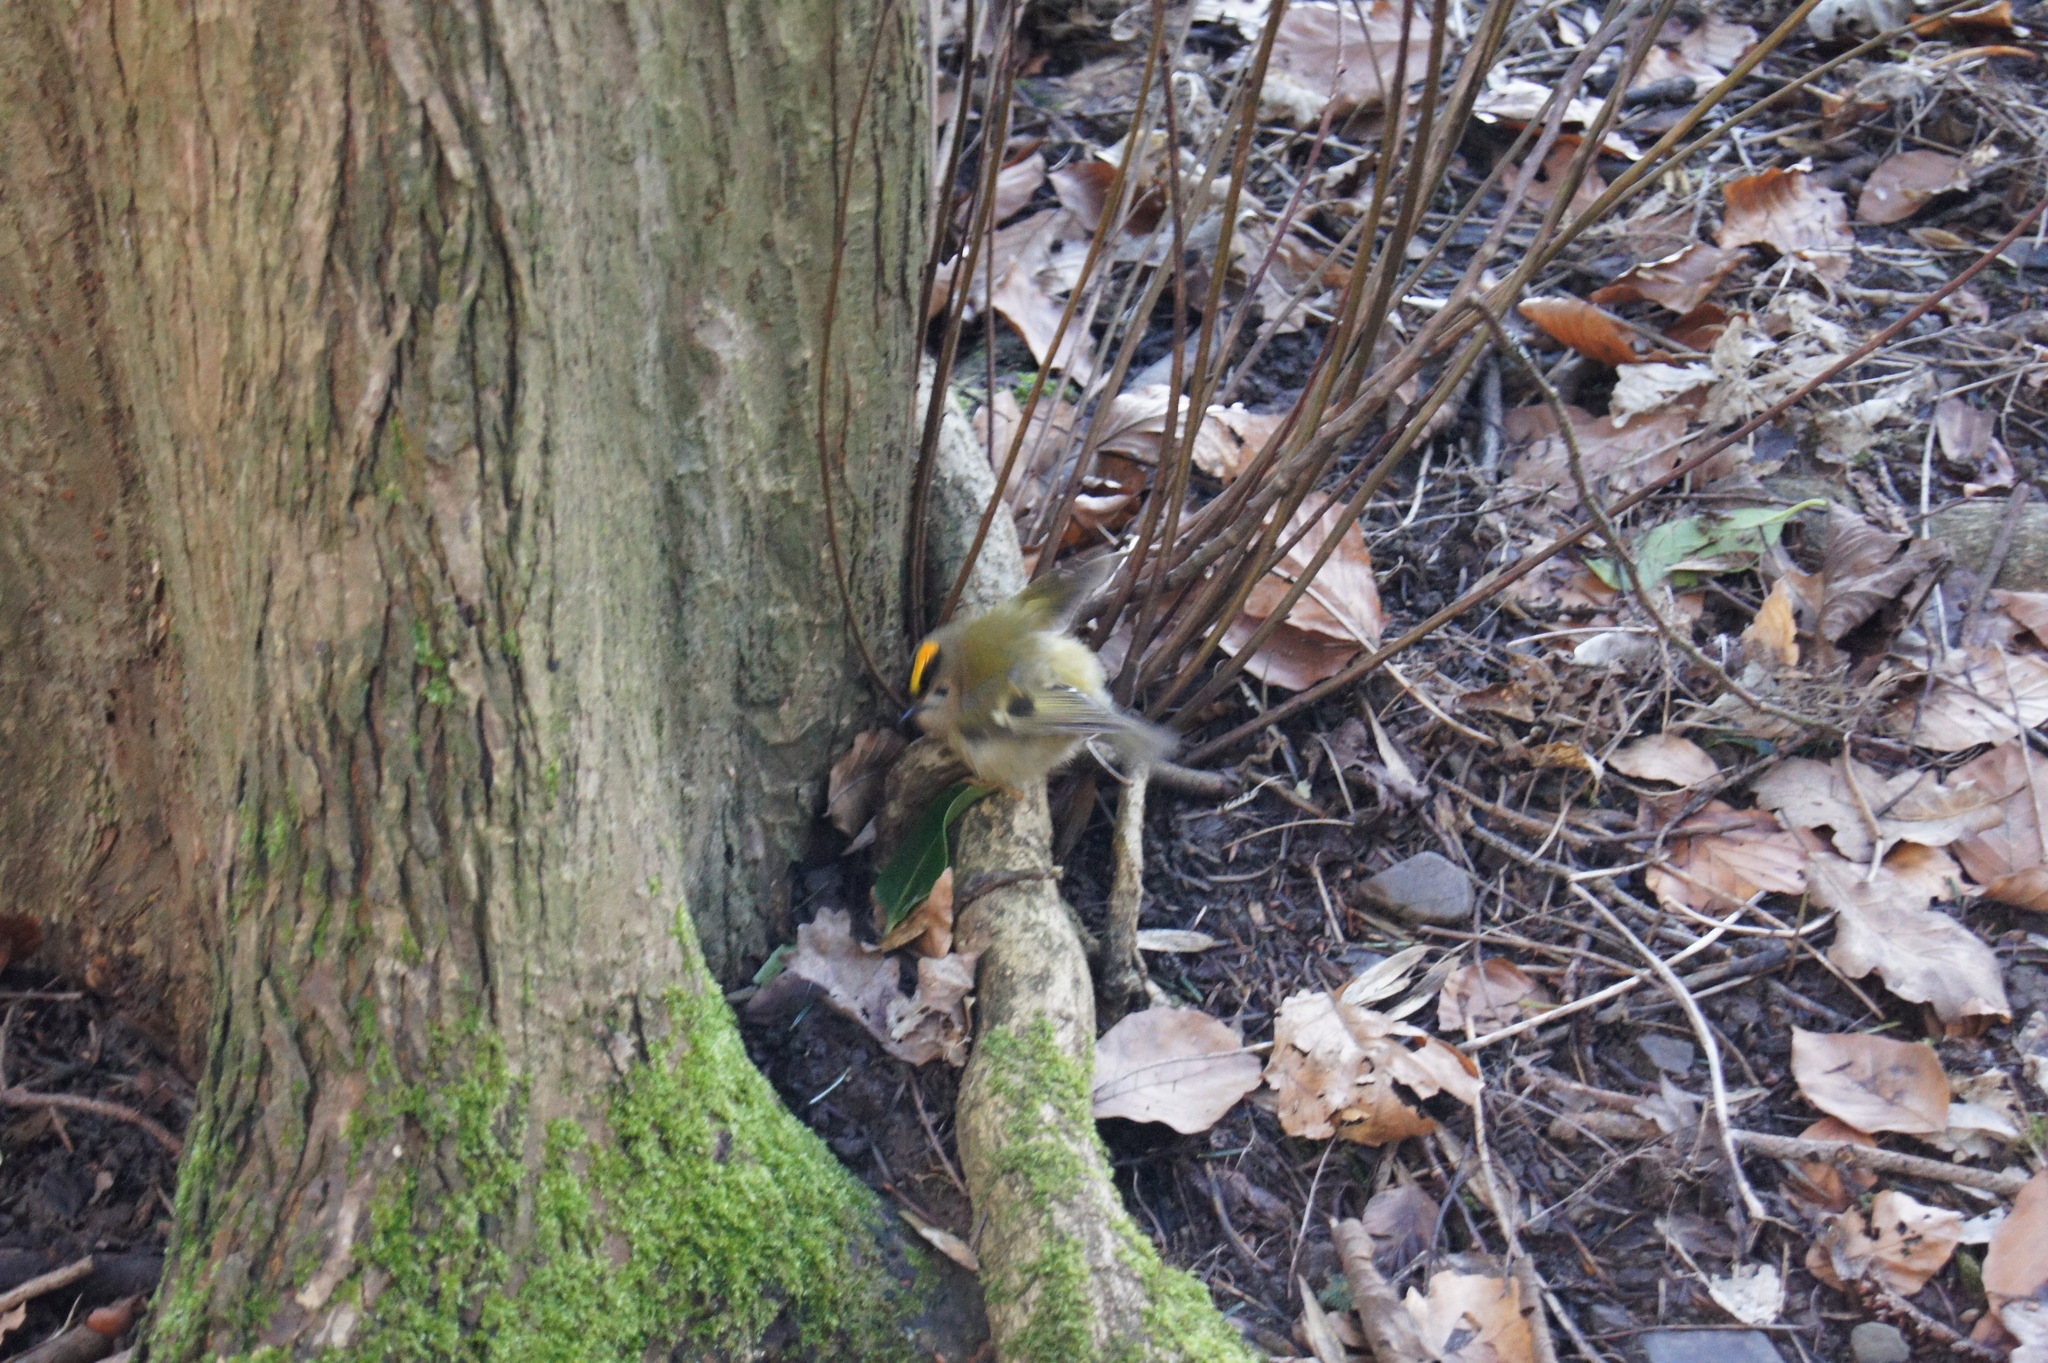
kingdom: Animalia
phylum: Chordata
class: Aves
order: Passeriformes
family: Regulidae
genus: Regulus
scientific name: Regulus regulus
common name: Goldcrest
